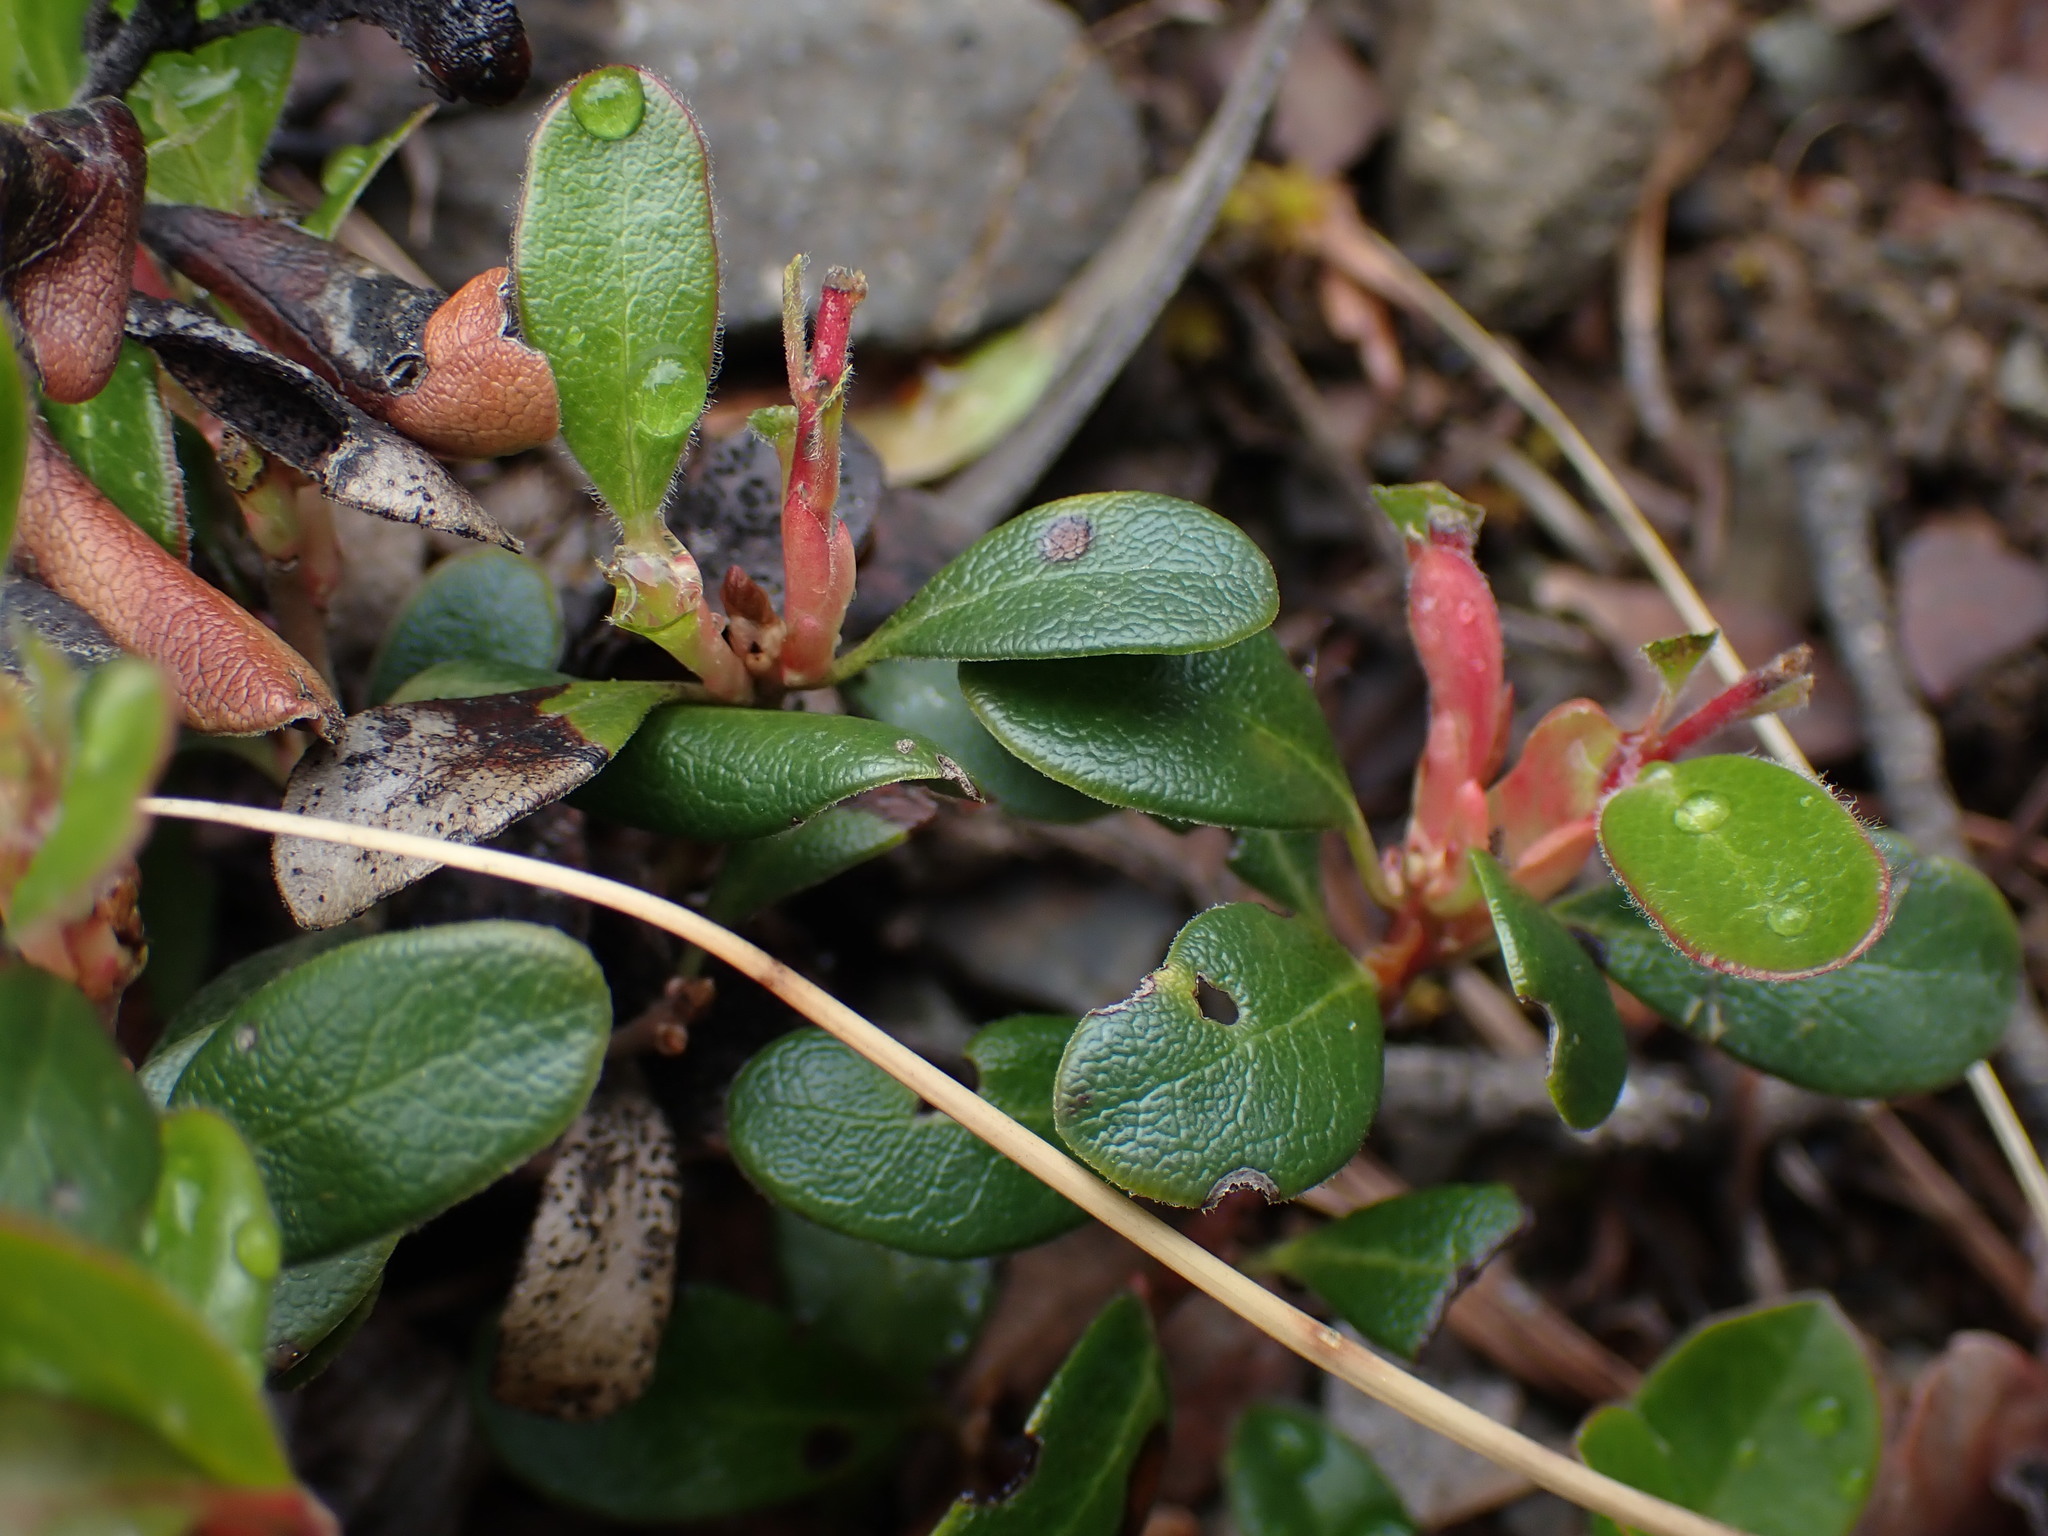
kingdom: Plantae
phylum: Tracheophyta
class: Magnoliopsida
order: Ericales
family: Ericaceae
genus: Arctostaphylos
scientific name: Arctostaphylos uva-ursi
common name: Bearberry
